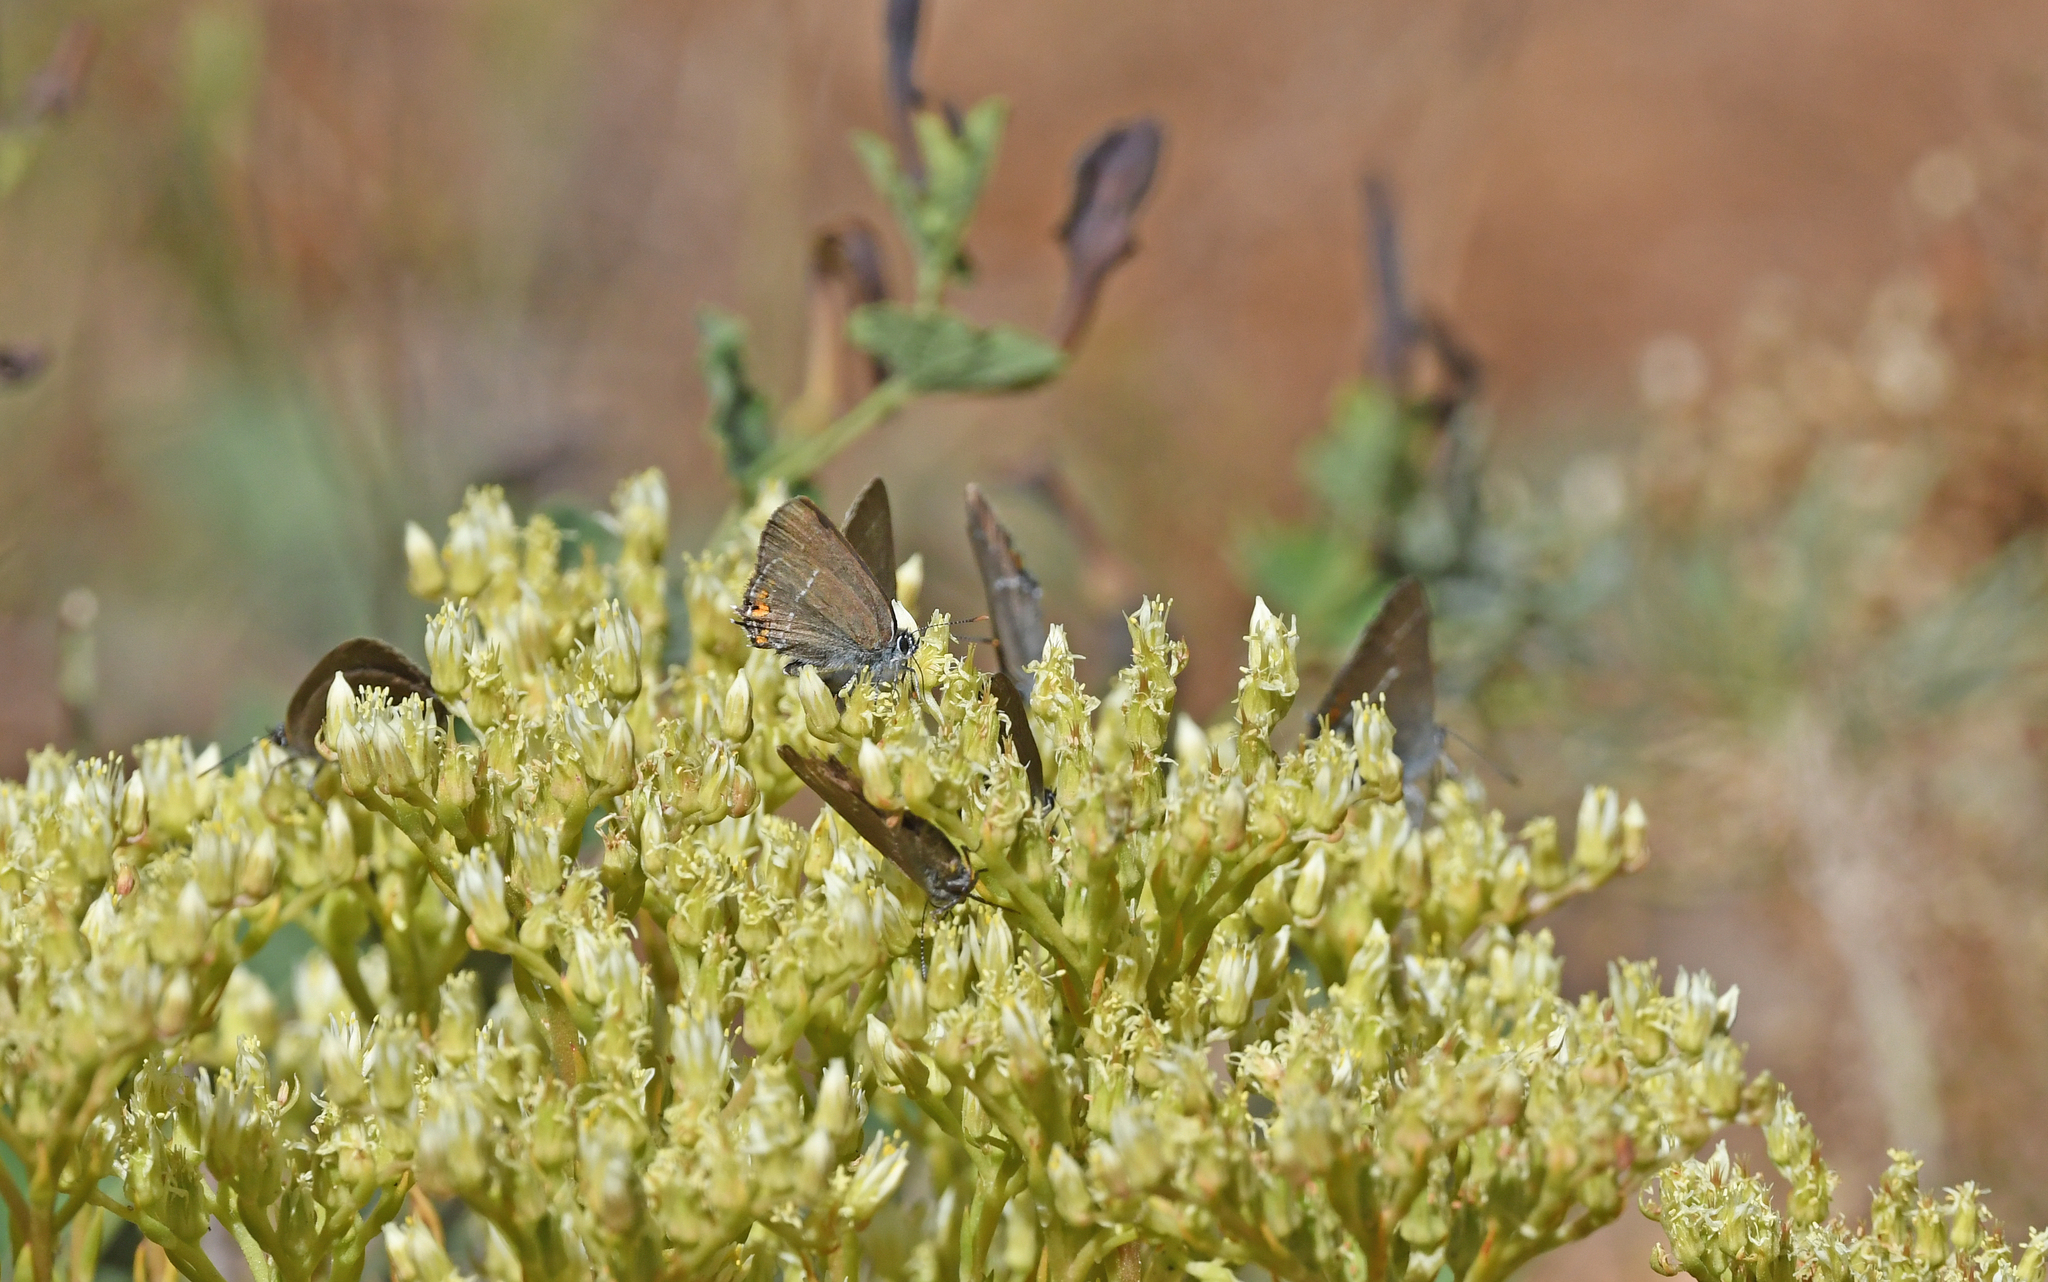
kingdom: Animalia
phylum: Arthropoda
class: Insecta
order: Lepidoptera
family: Lycaenidae
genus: Strymon
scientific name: Strymon acaciae
